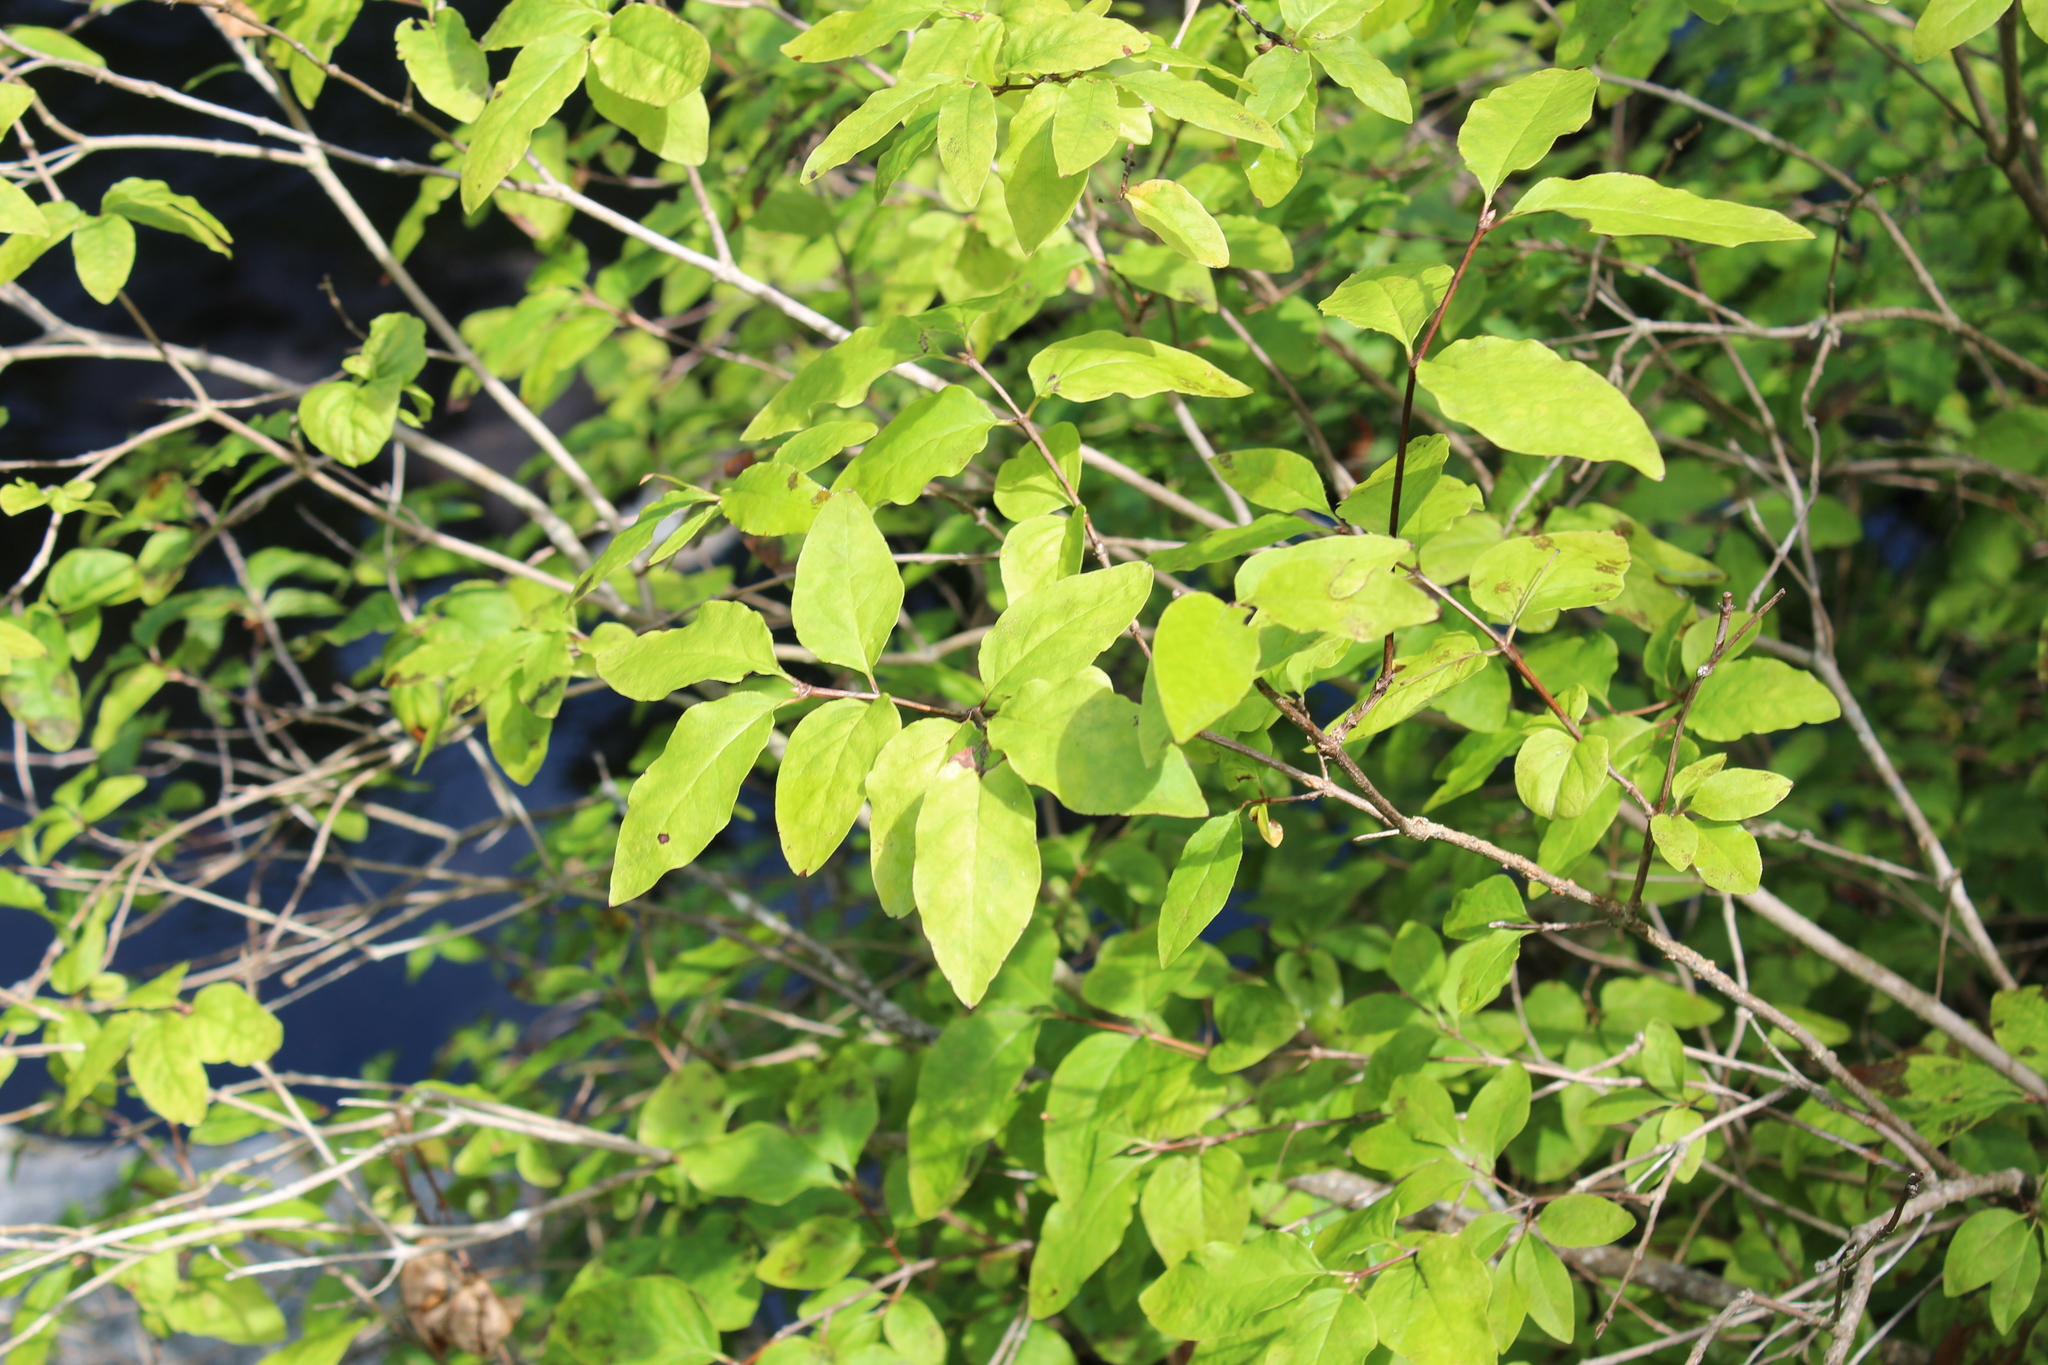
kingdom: Plantae
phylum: Tracheophyta
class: Magnoliopsida
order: Dipsacales
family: Caprifoliaceae
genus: Lonicera
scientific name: Lonicera canadensis
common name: American fly-honeysuckle
